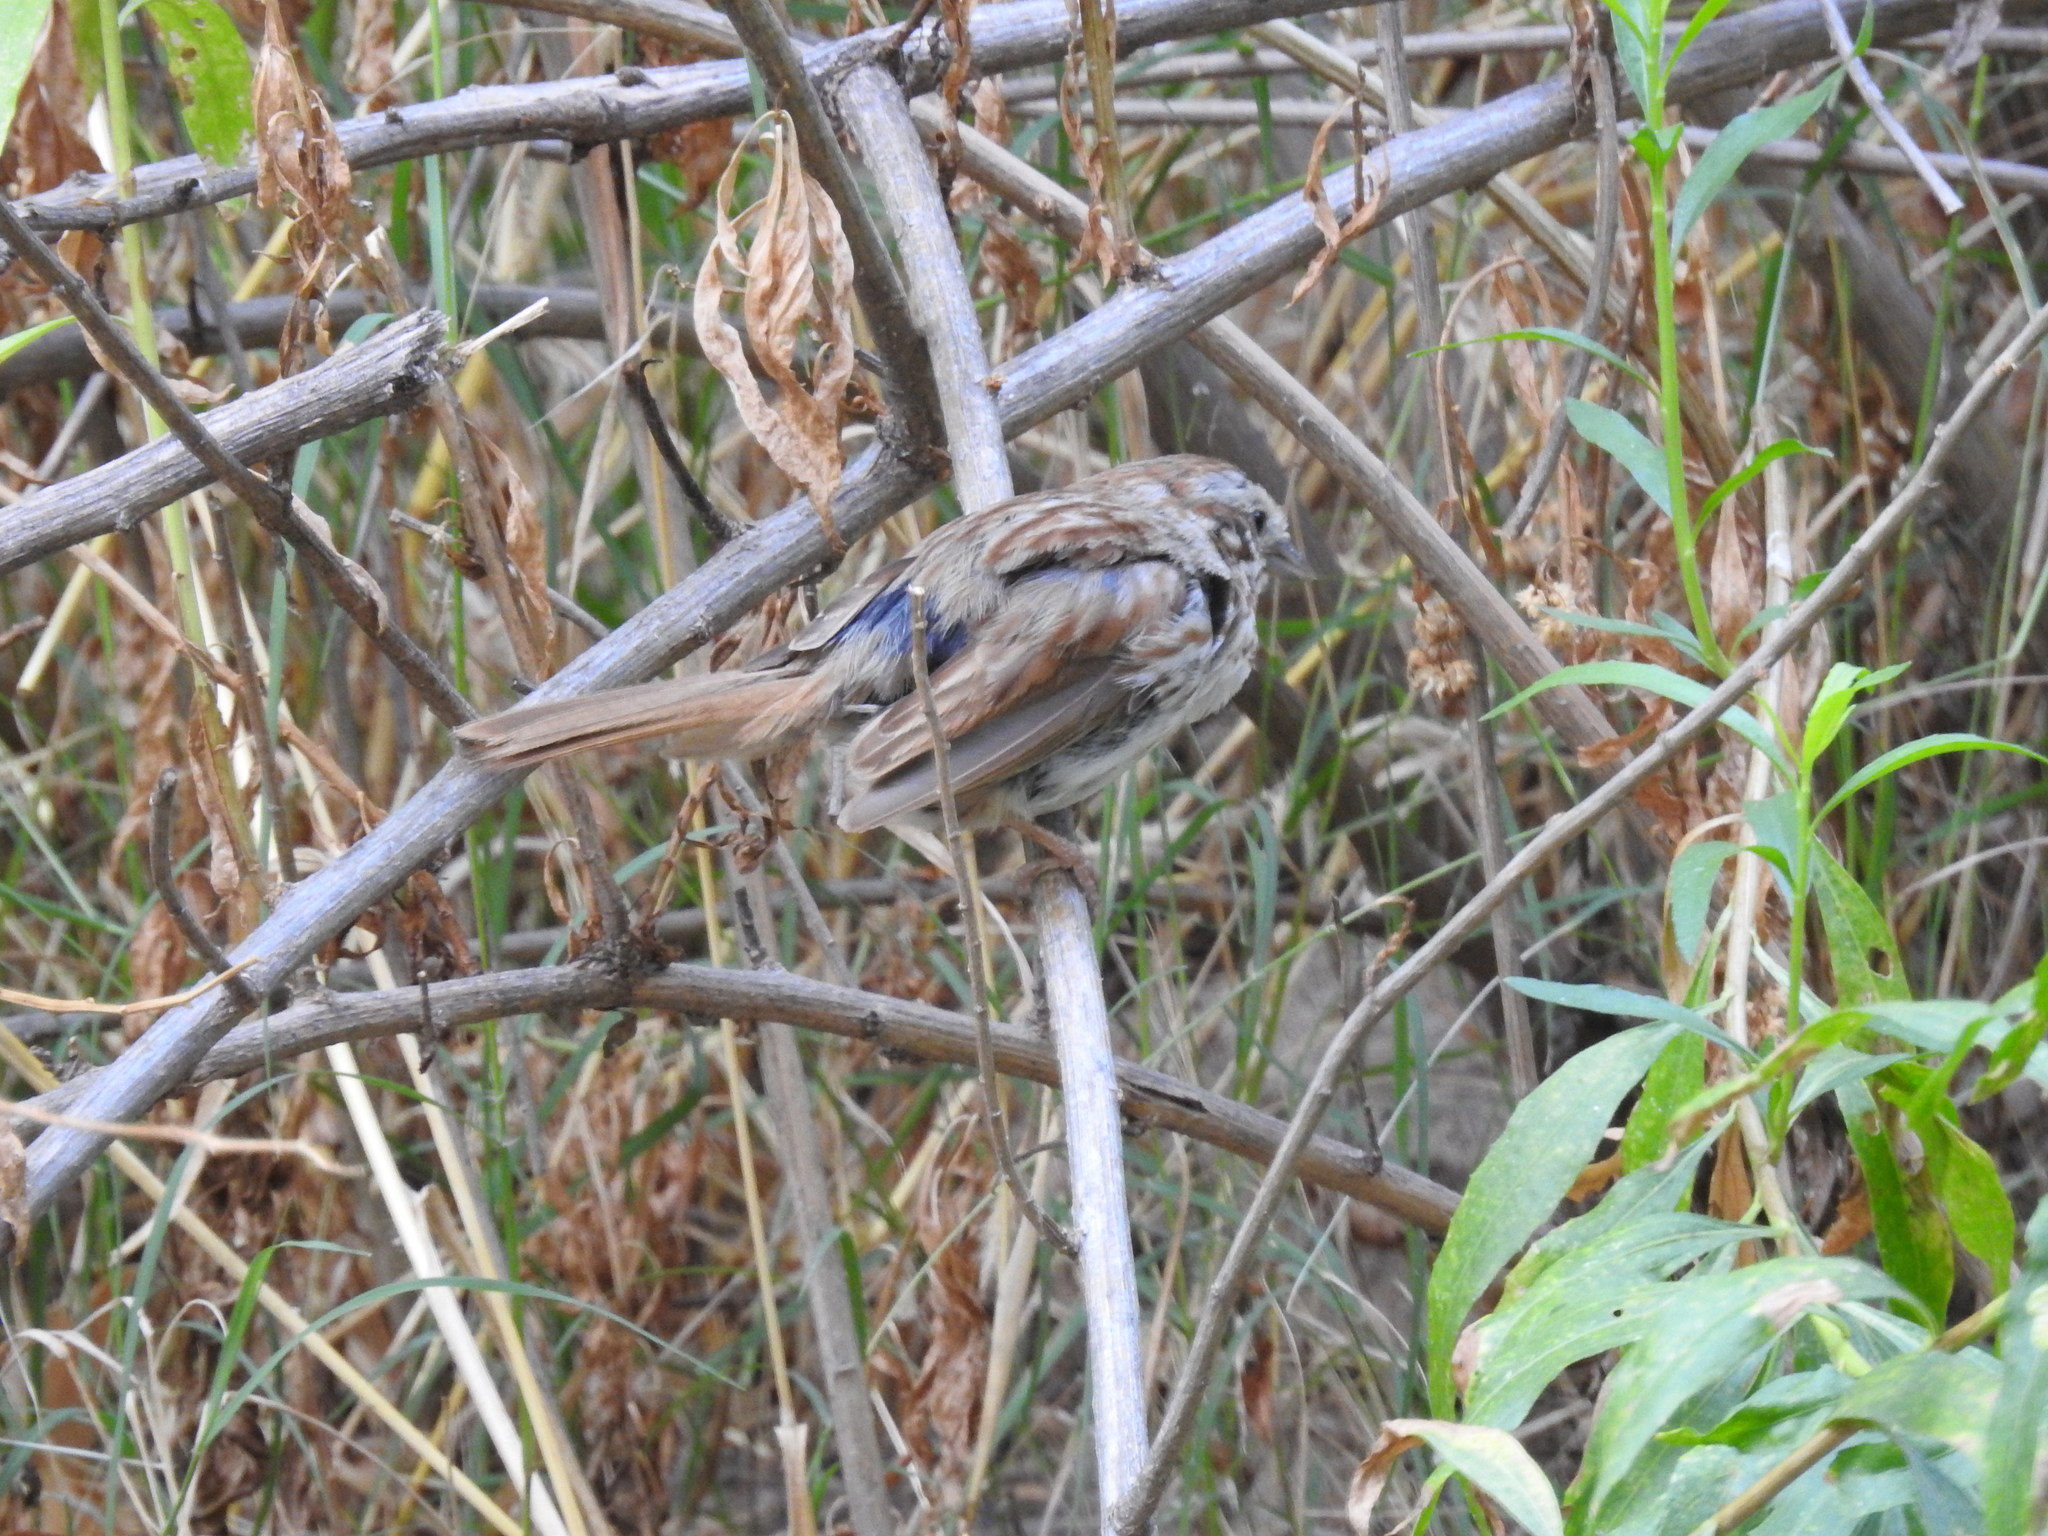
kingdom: Animalia
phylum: Chordata
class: Aves
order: Passeriformes
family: Passerellidae
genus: Melospiza
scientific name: Melospiza melodia
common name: Song sparrow
